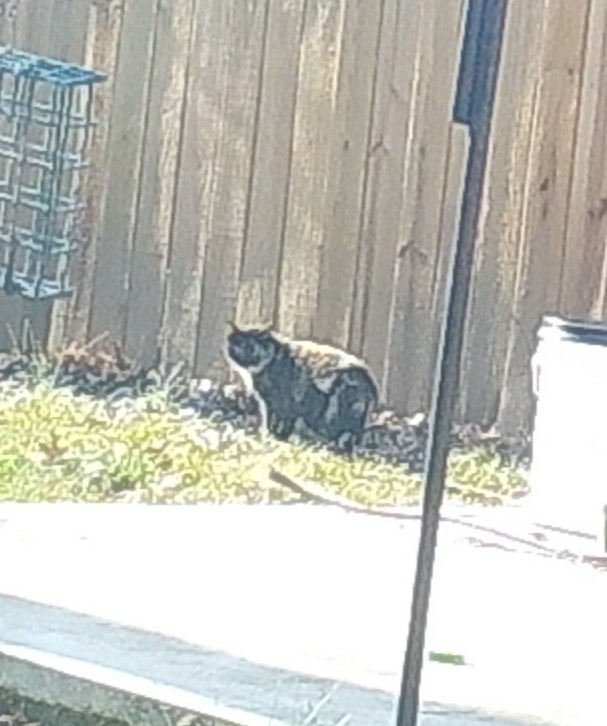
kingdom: Animalia
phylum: Chordata
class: Mammalia
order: Carnivora
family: Felidae
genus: Felis
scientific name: Felis catus
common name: Domestic cat
